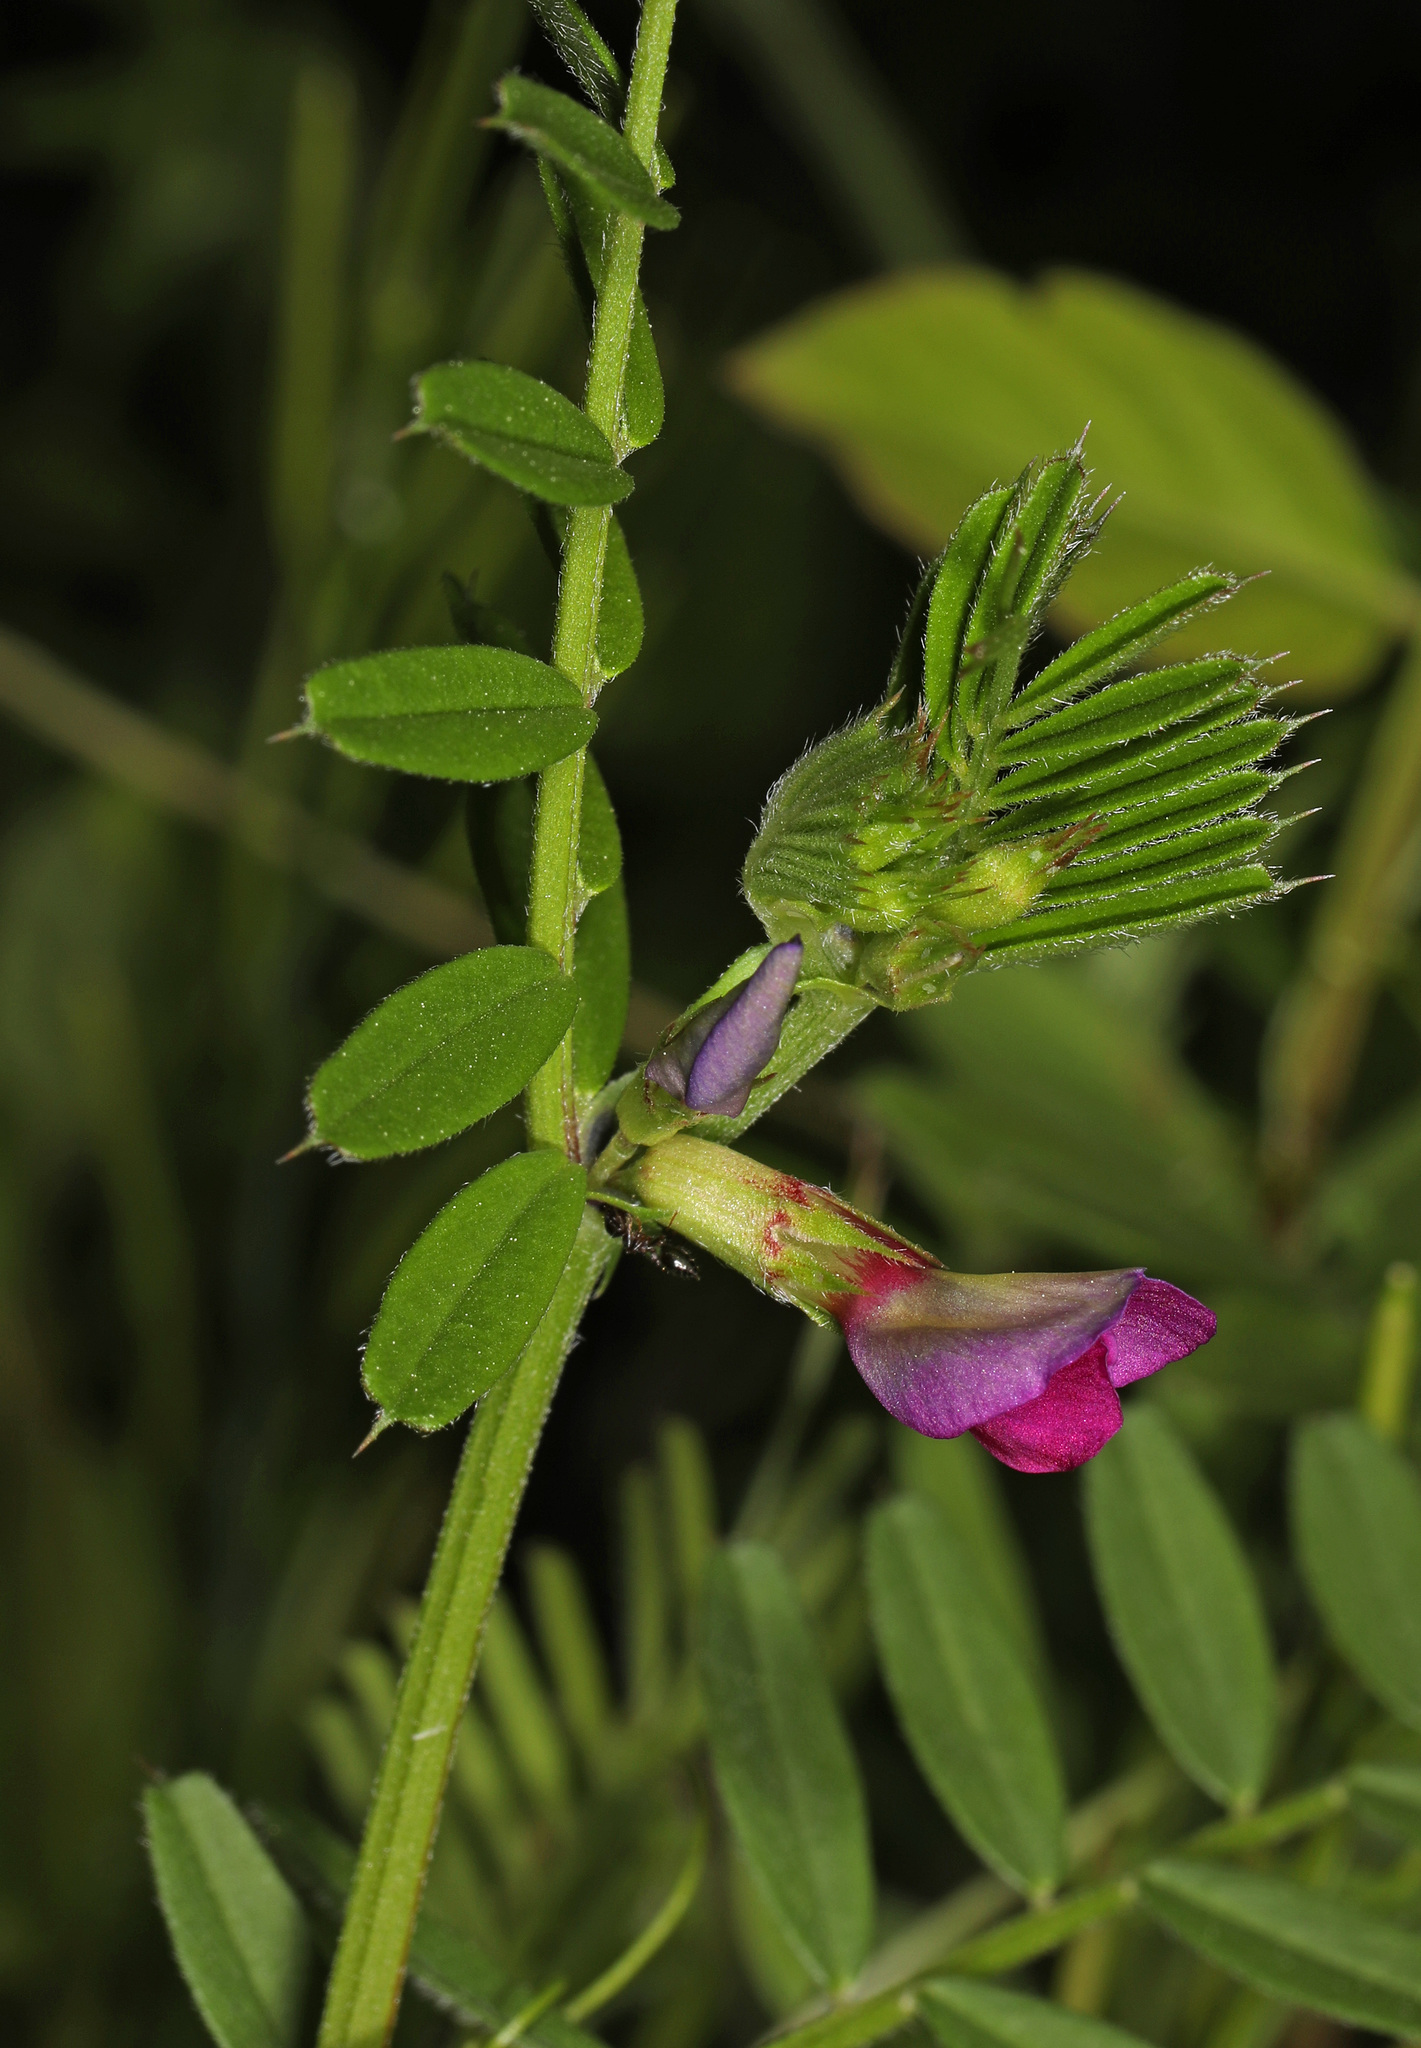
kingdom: Plantae
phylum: Tracheophyta
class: Magnoliopsida
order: Fabales
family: Fabaceae
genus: Vicia
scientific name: Vicia sativa
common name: Garden vetch
